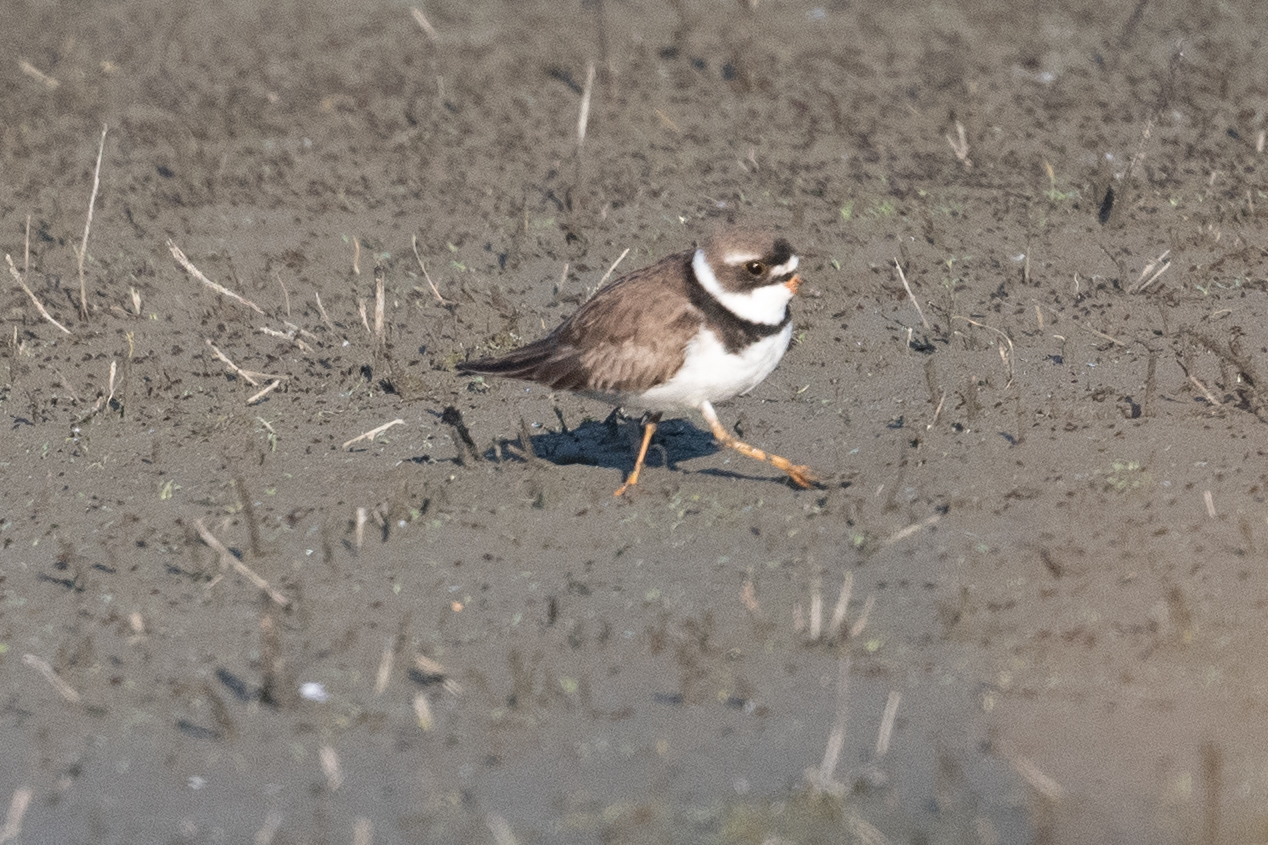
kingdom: Animalia
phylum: Chordata
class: Aves
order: Charadriiformes
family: Charadriidae
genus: Charadrius
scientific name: Charadrius semipalmatus
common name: Semipalmated plover
